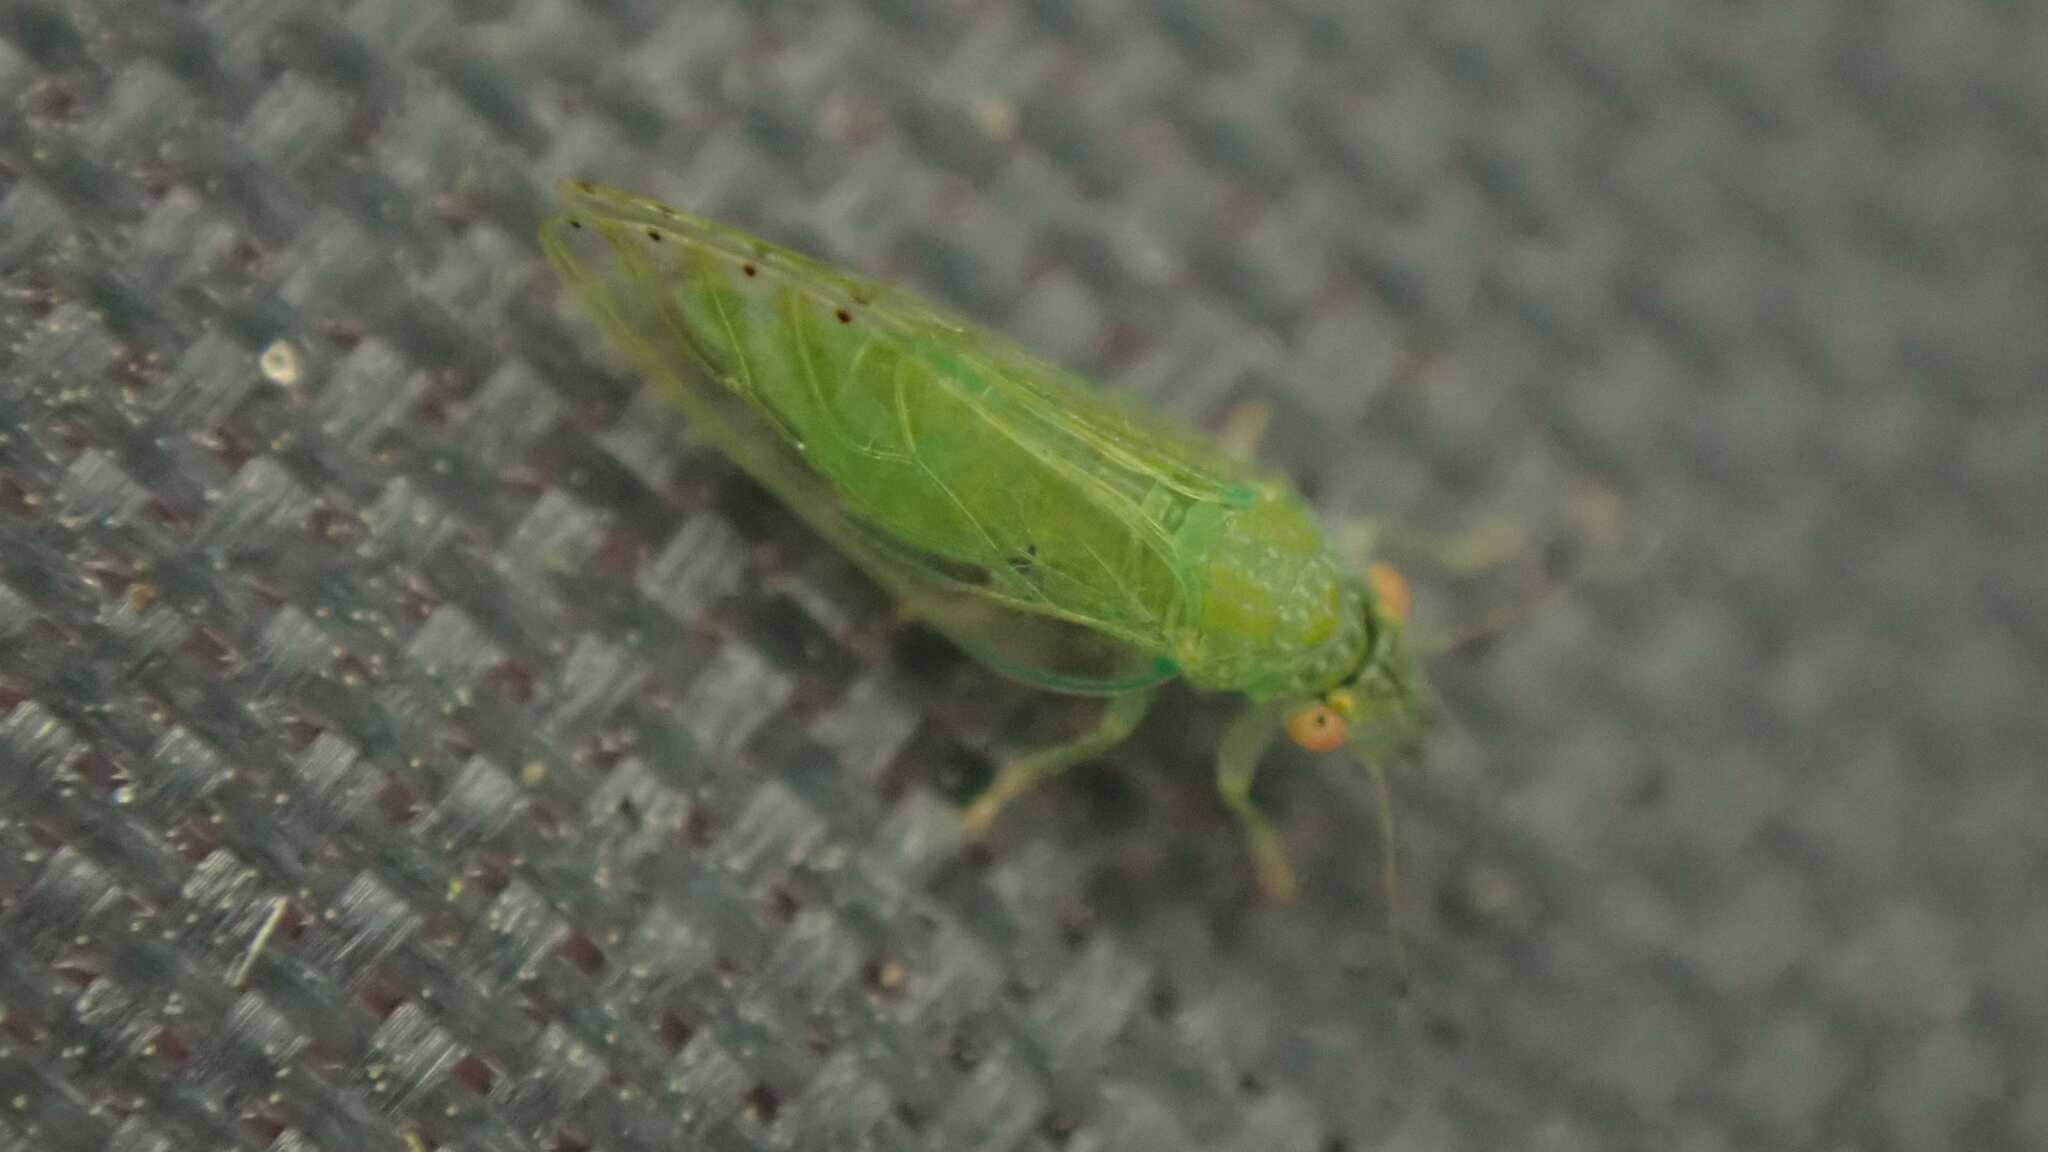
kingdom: Animalia
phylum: Arthropoda
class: Insecta
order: Hemiptera
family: Psyllidae
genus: Spanioneura
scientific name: Spanioneura fonscolombii
